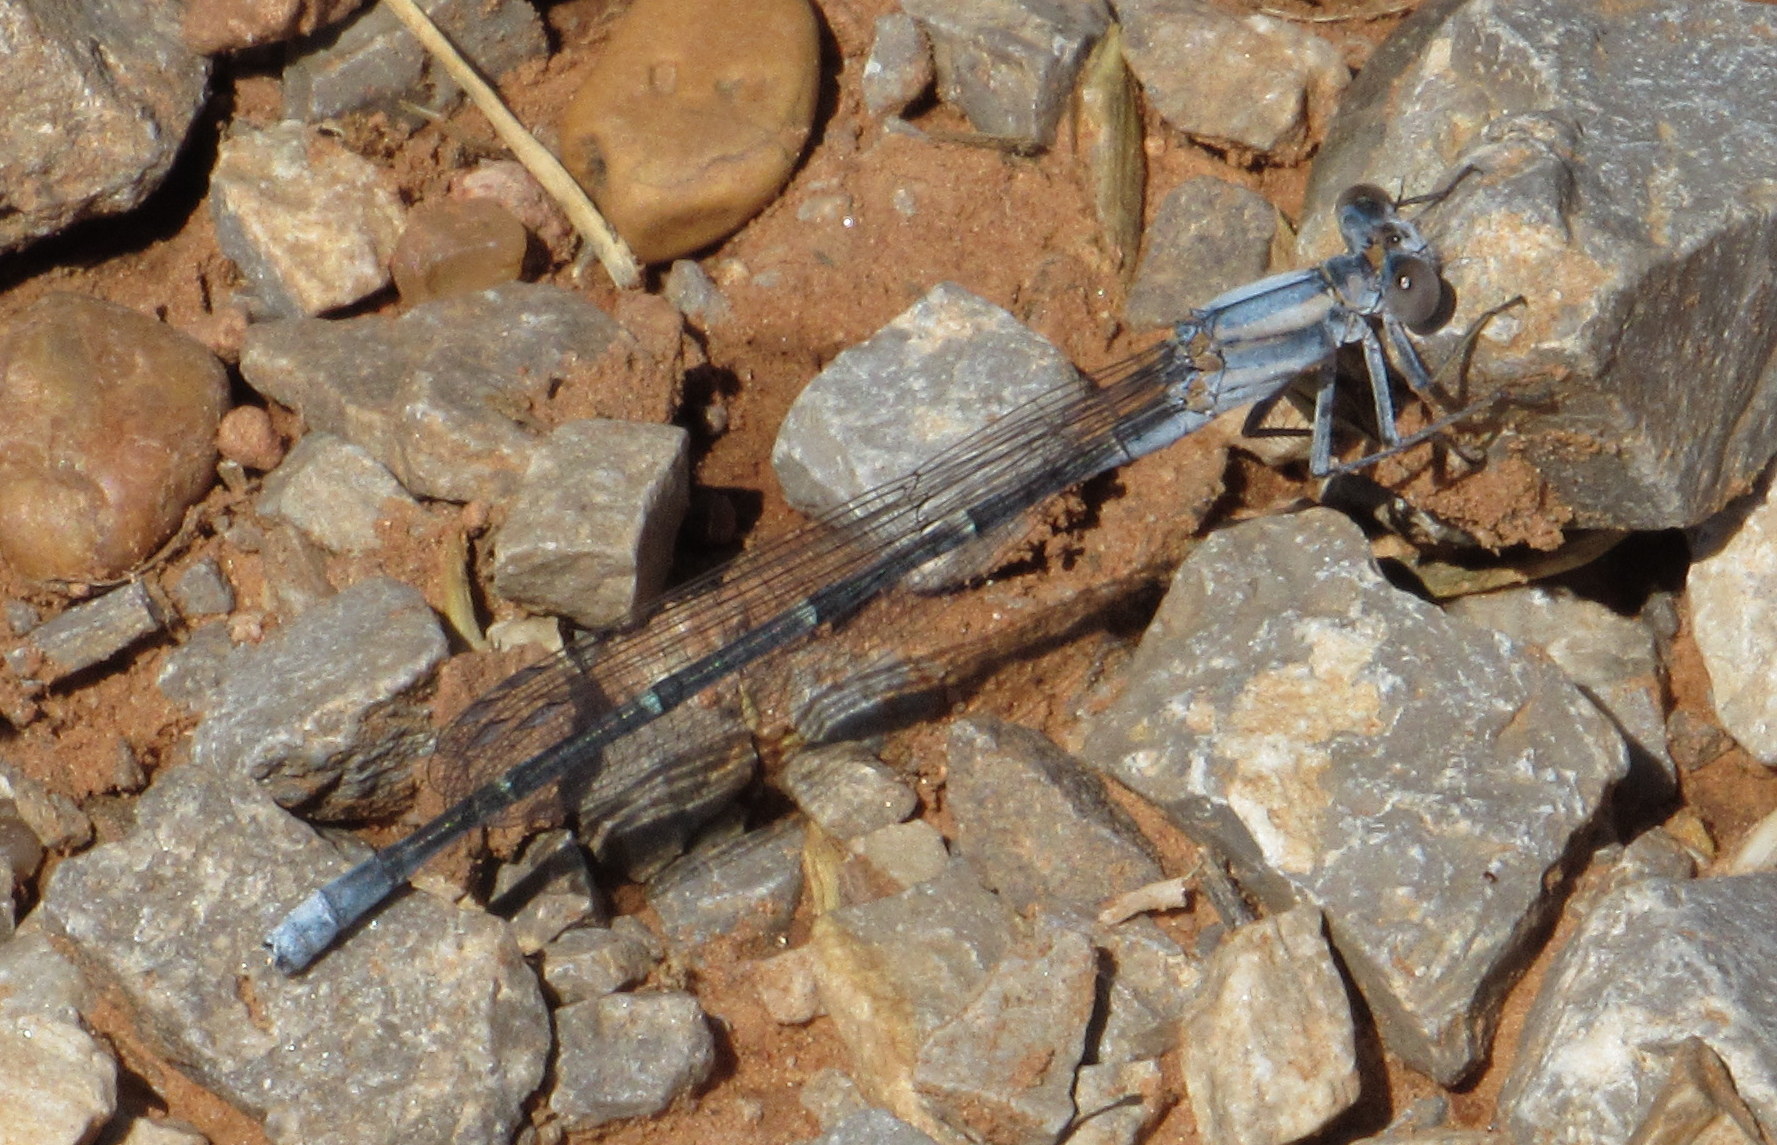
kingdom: Animalia
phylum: Arthropoda
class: Insecta
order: Odonata
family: Coenagrionidae
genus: Argia
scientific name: Argia moesta
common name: Powdered dancer
